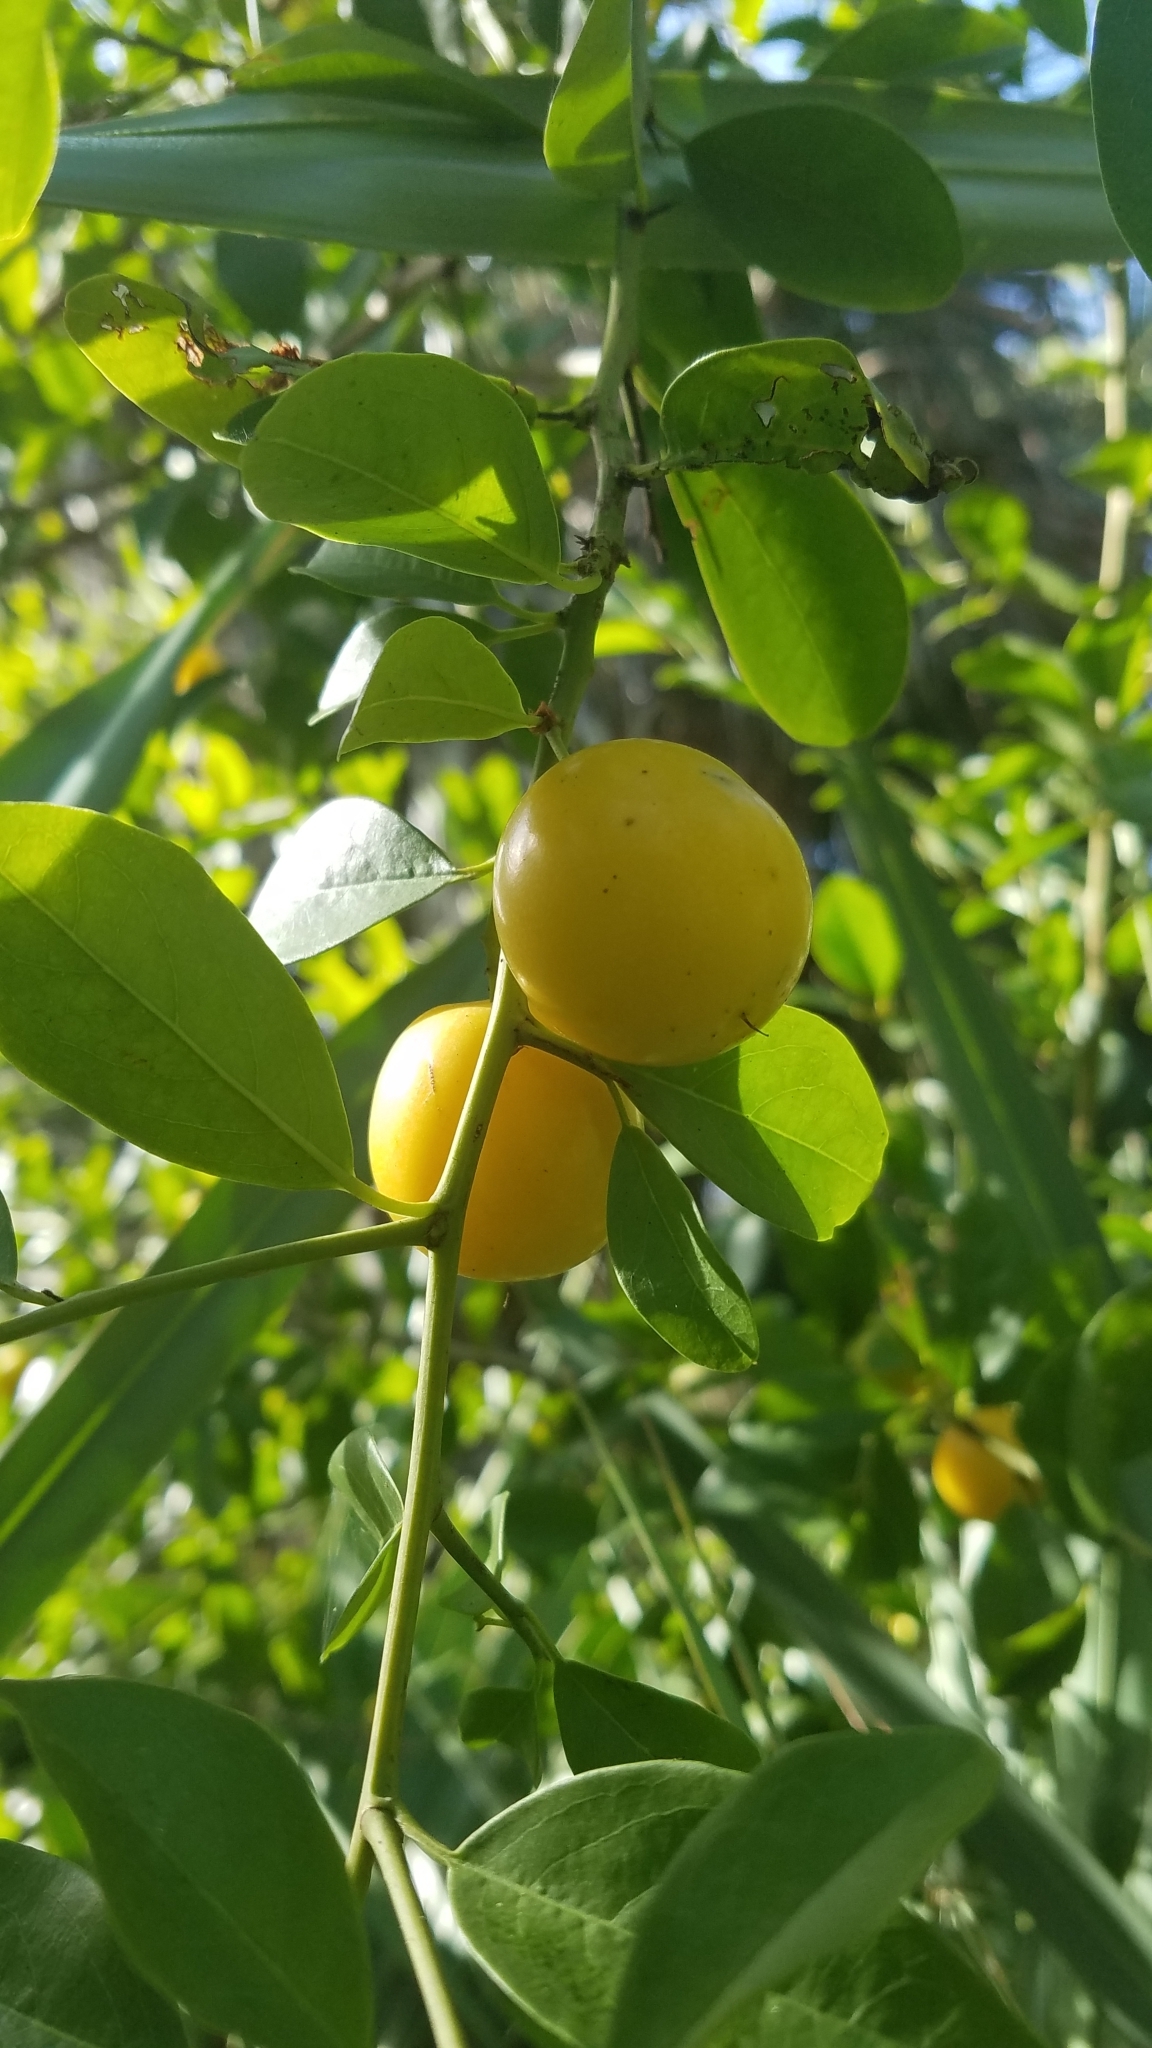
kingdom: Plantae
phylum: Tracheophyta
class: Magnoliopsida
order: Santalales
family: Ximeniaceae
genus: Ximenia
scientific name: Ximenia americana
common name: Tallowwood
